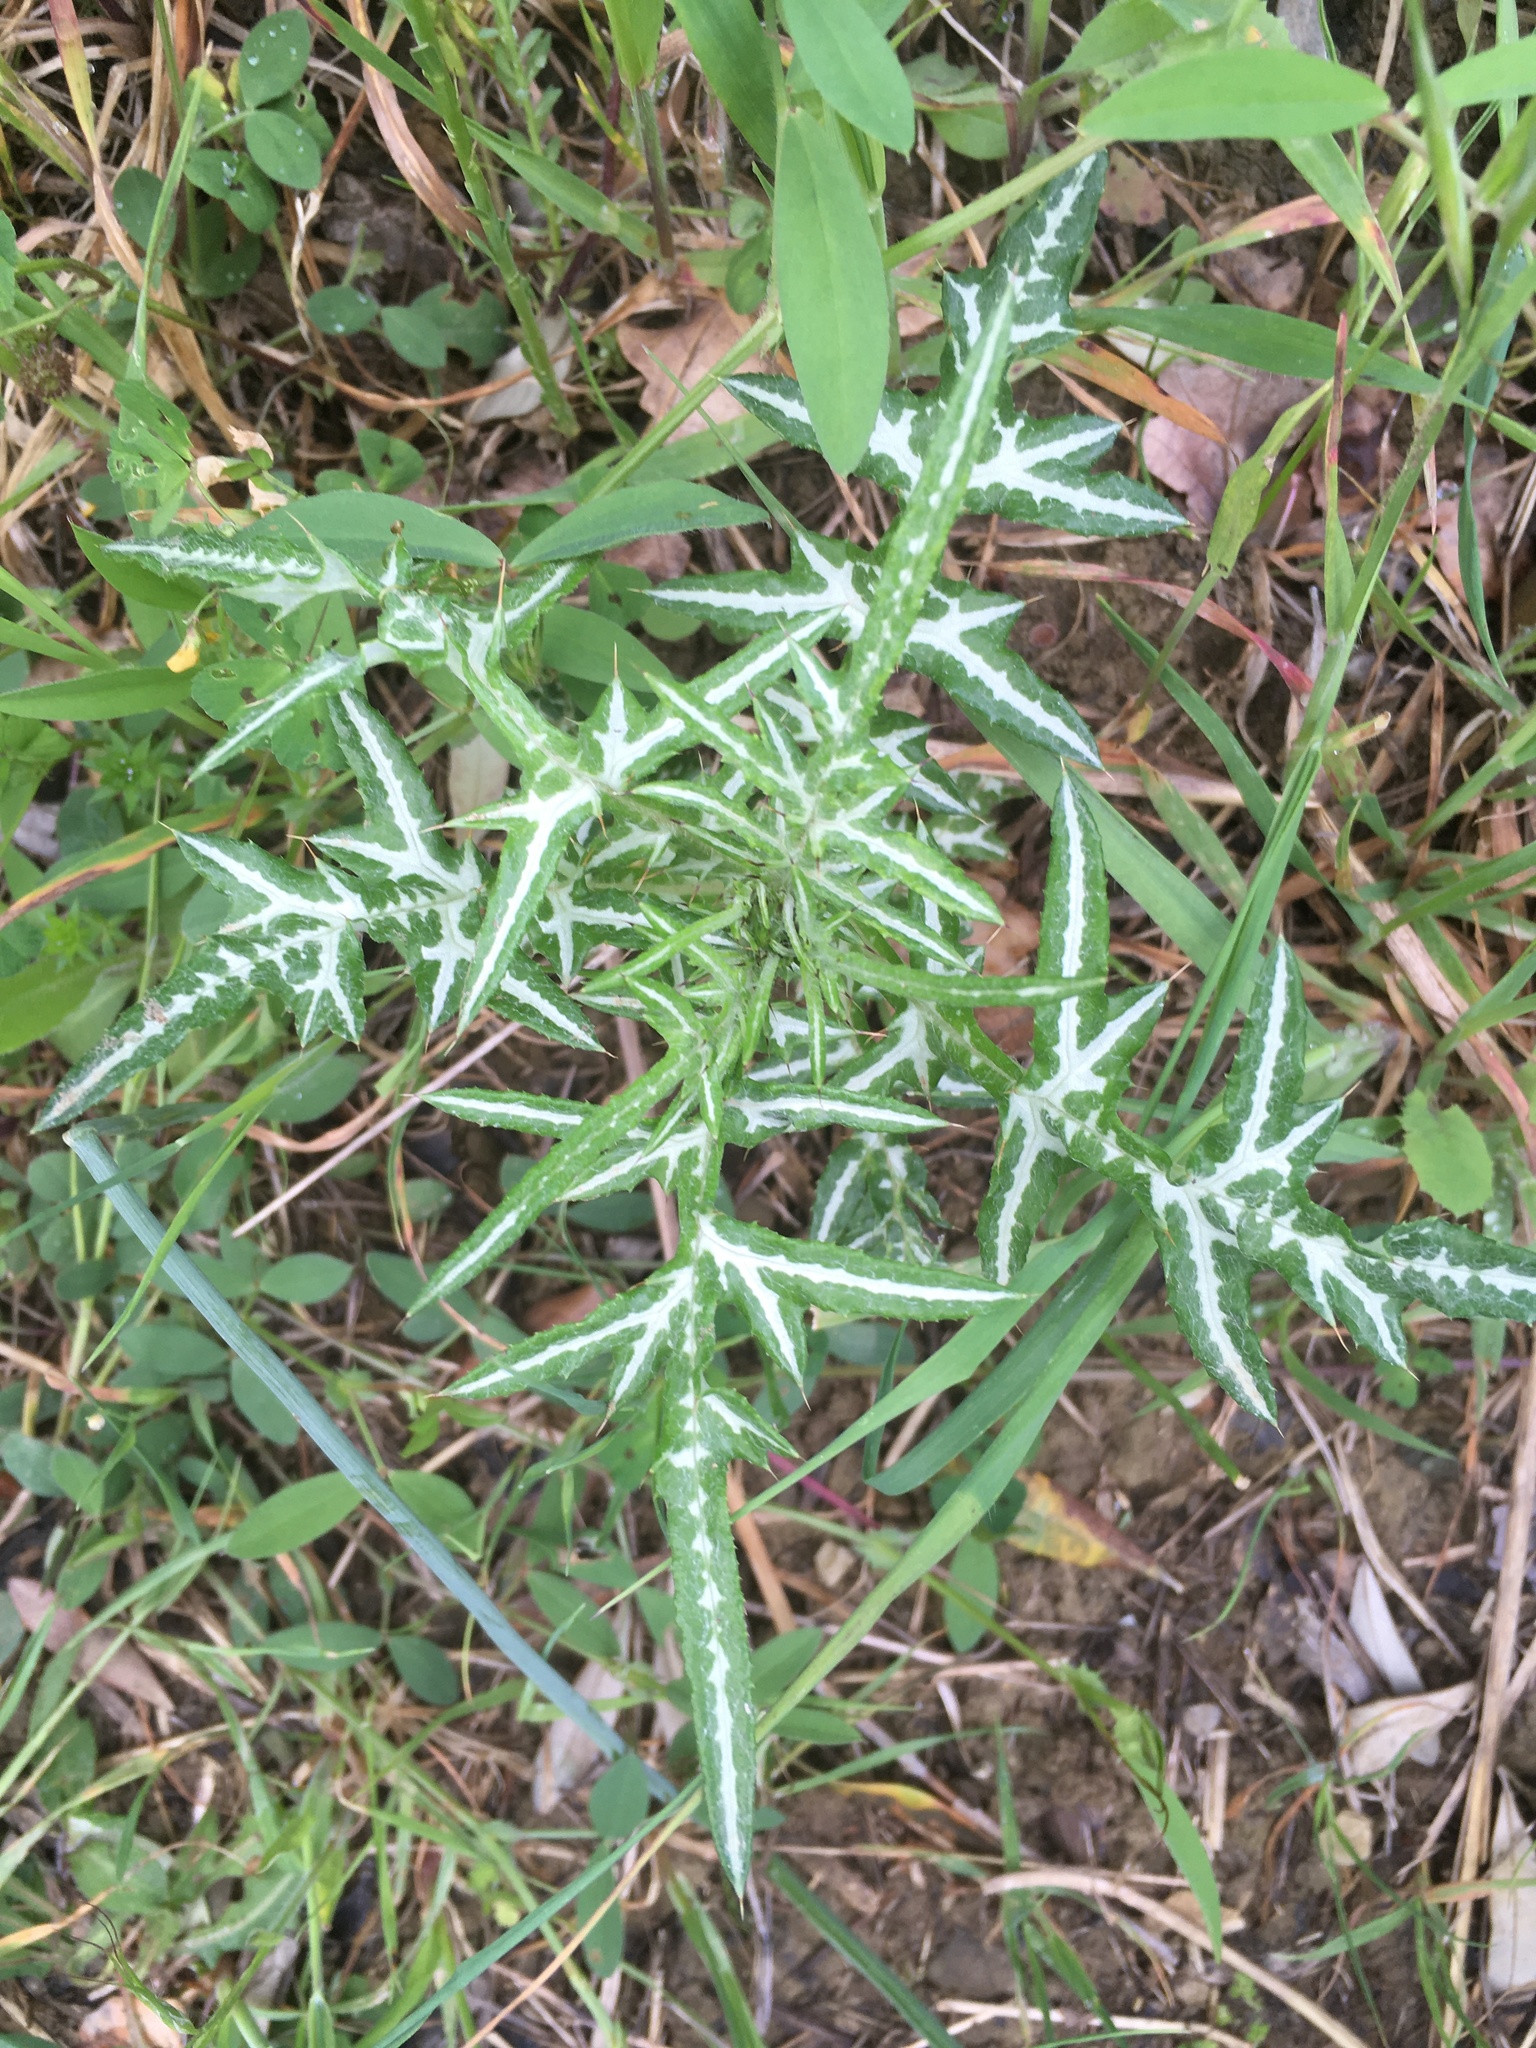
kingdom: Plantae
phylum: Tracheophyta
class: Magnoliopsida
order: Asterales
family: Asteraceae
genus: Galactites
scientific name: Galactites tomentosa
